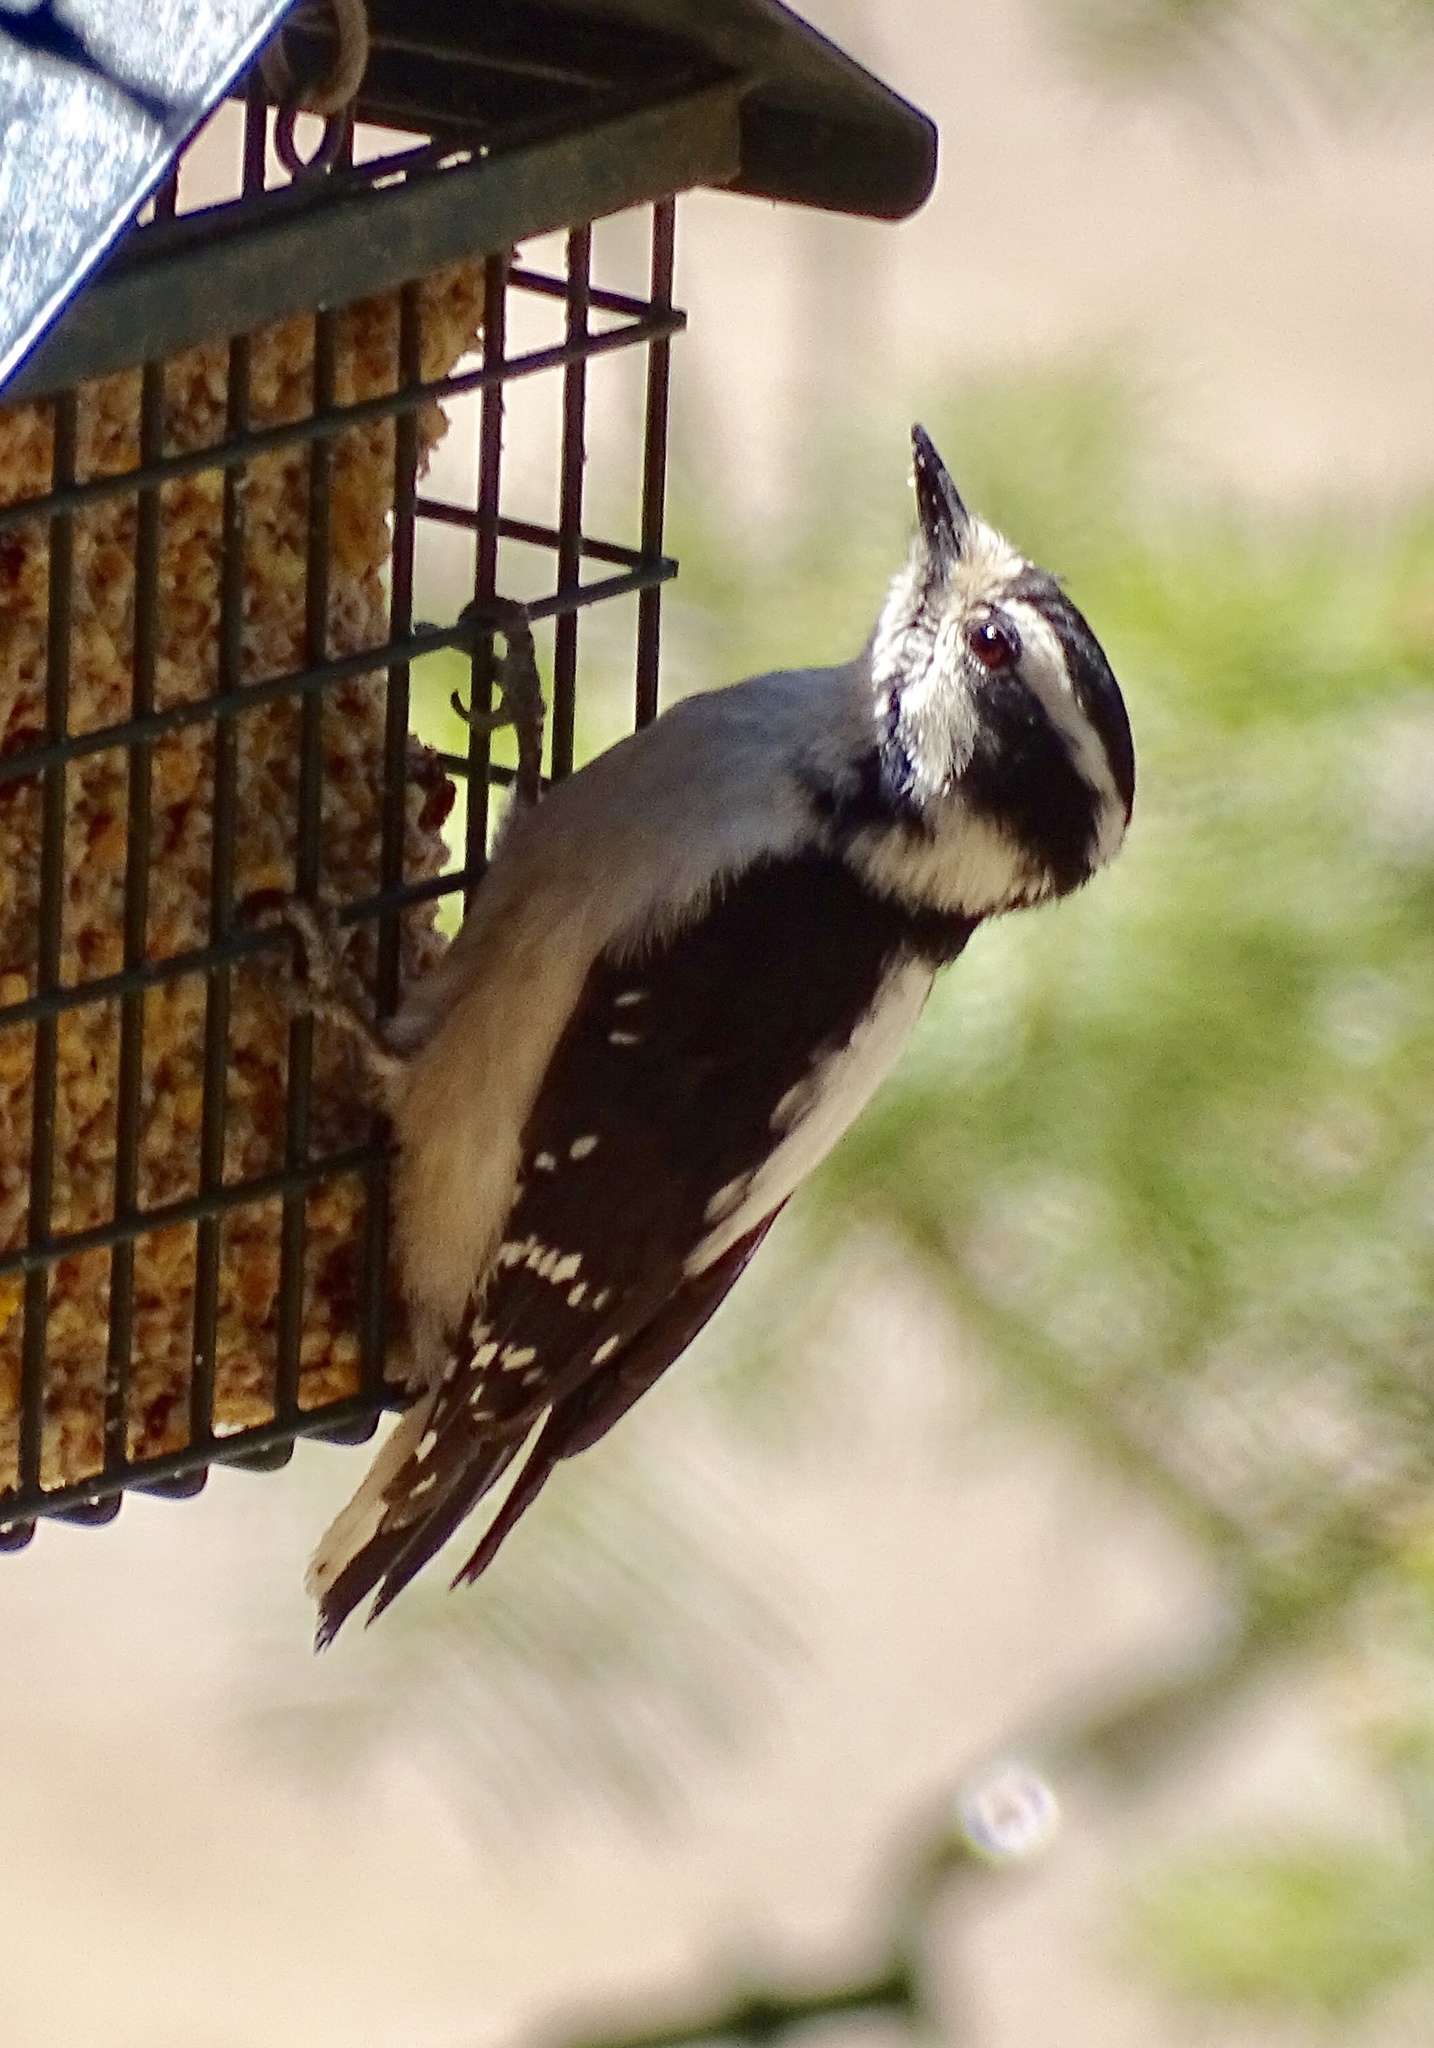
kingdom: Animalia
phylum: Chordata
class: Aves
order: Piciformes
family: Picidae
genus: Dryobates
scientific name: Dryobates pubescens
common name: Downy woodpecker
